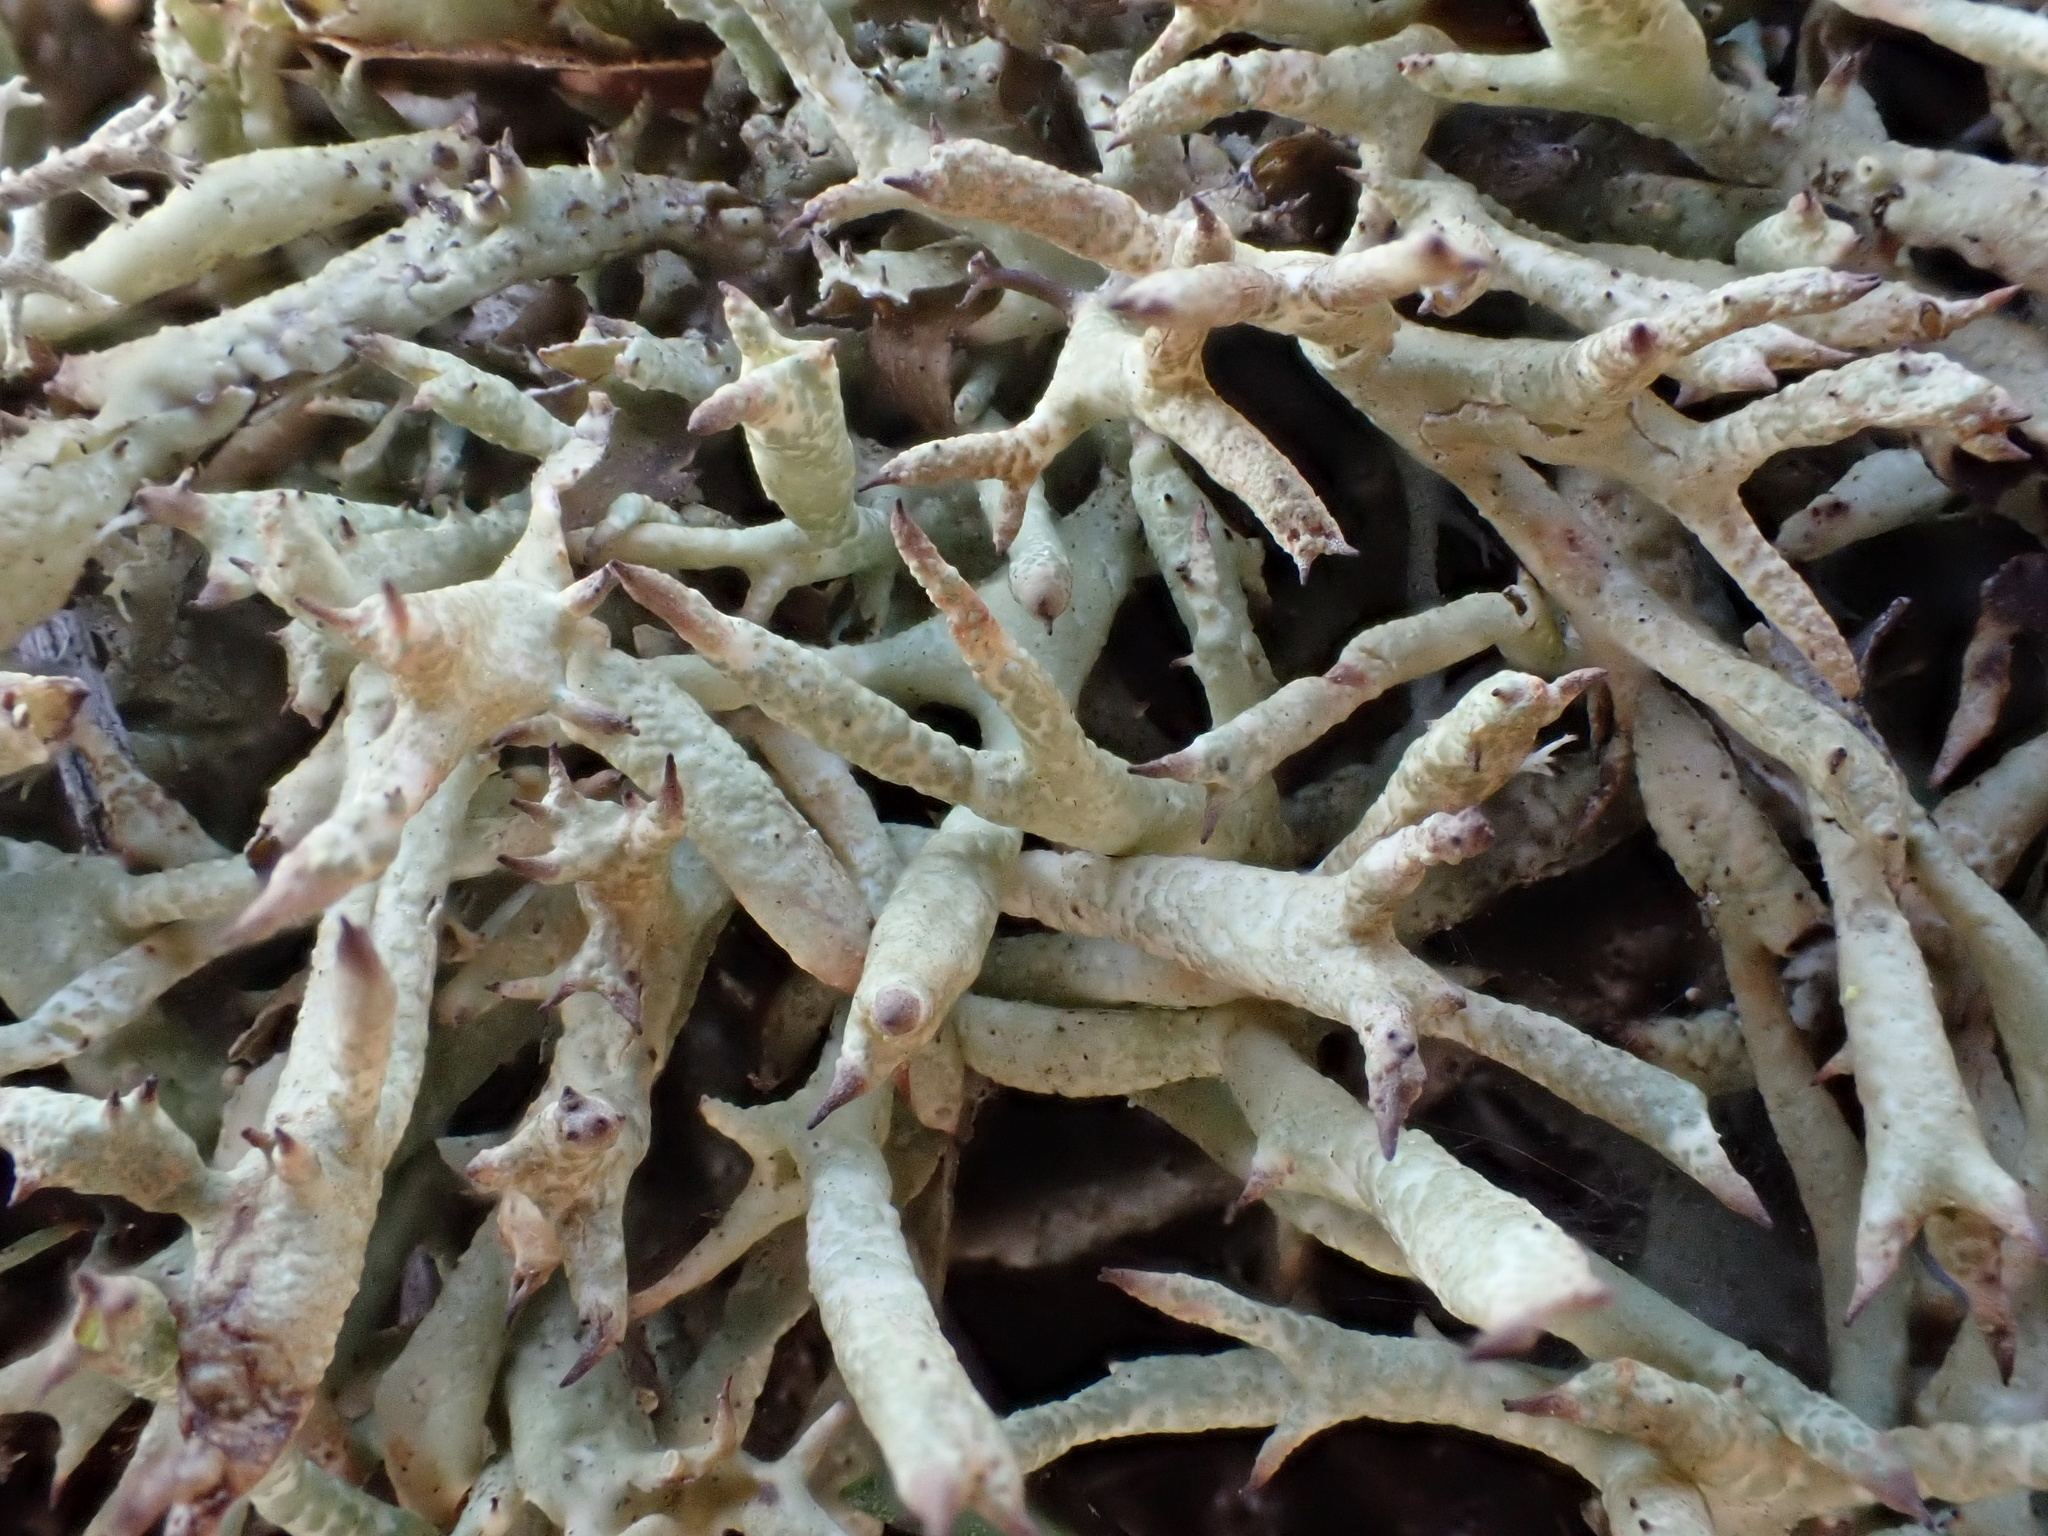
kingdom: Fungi
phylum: Ascomycota
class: Lecanoromycetes
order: Lecanorales
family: Cladoniaceae
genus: Cladonia
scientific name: Cladonia uncialis
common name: Thorn lichen
